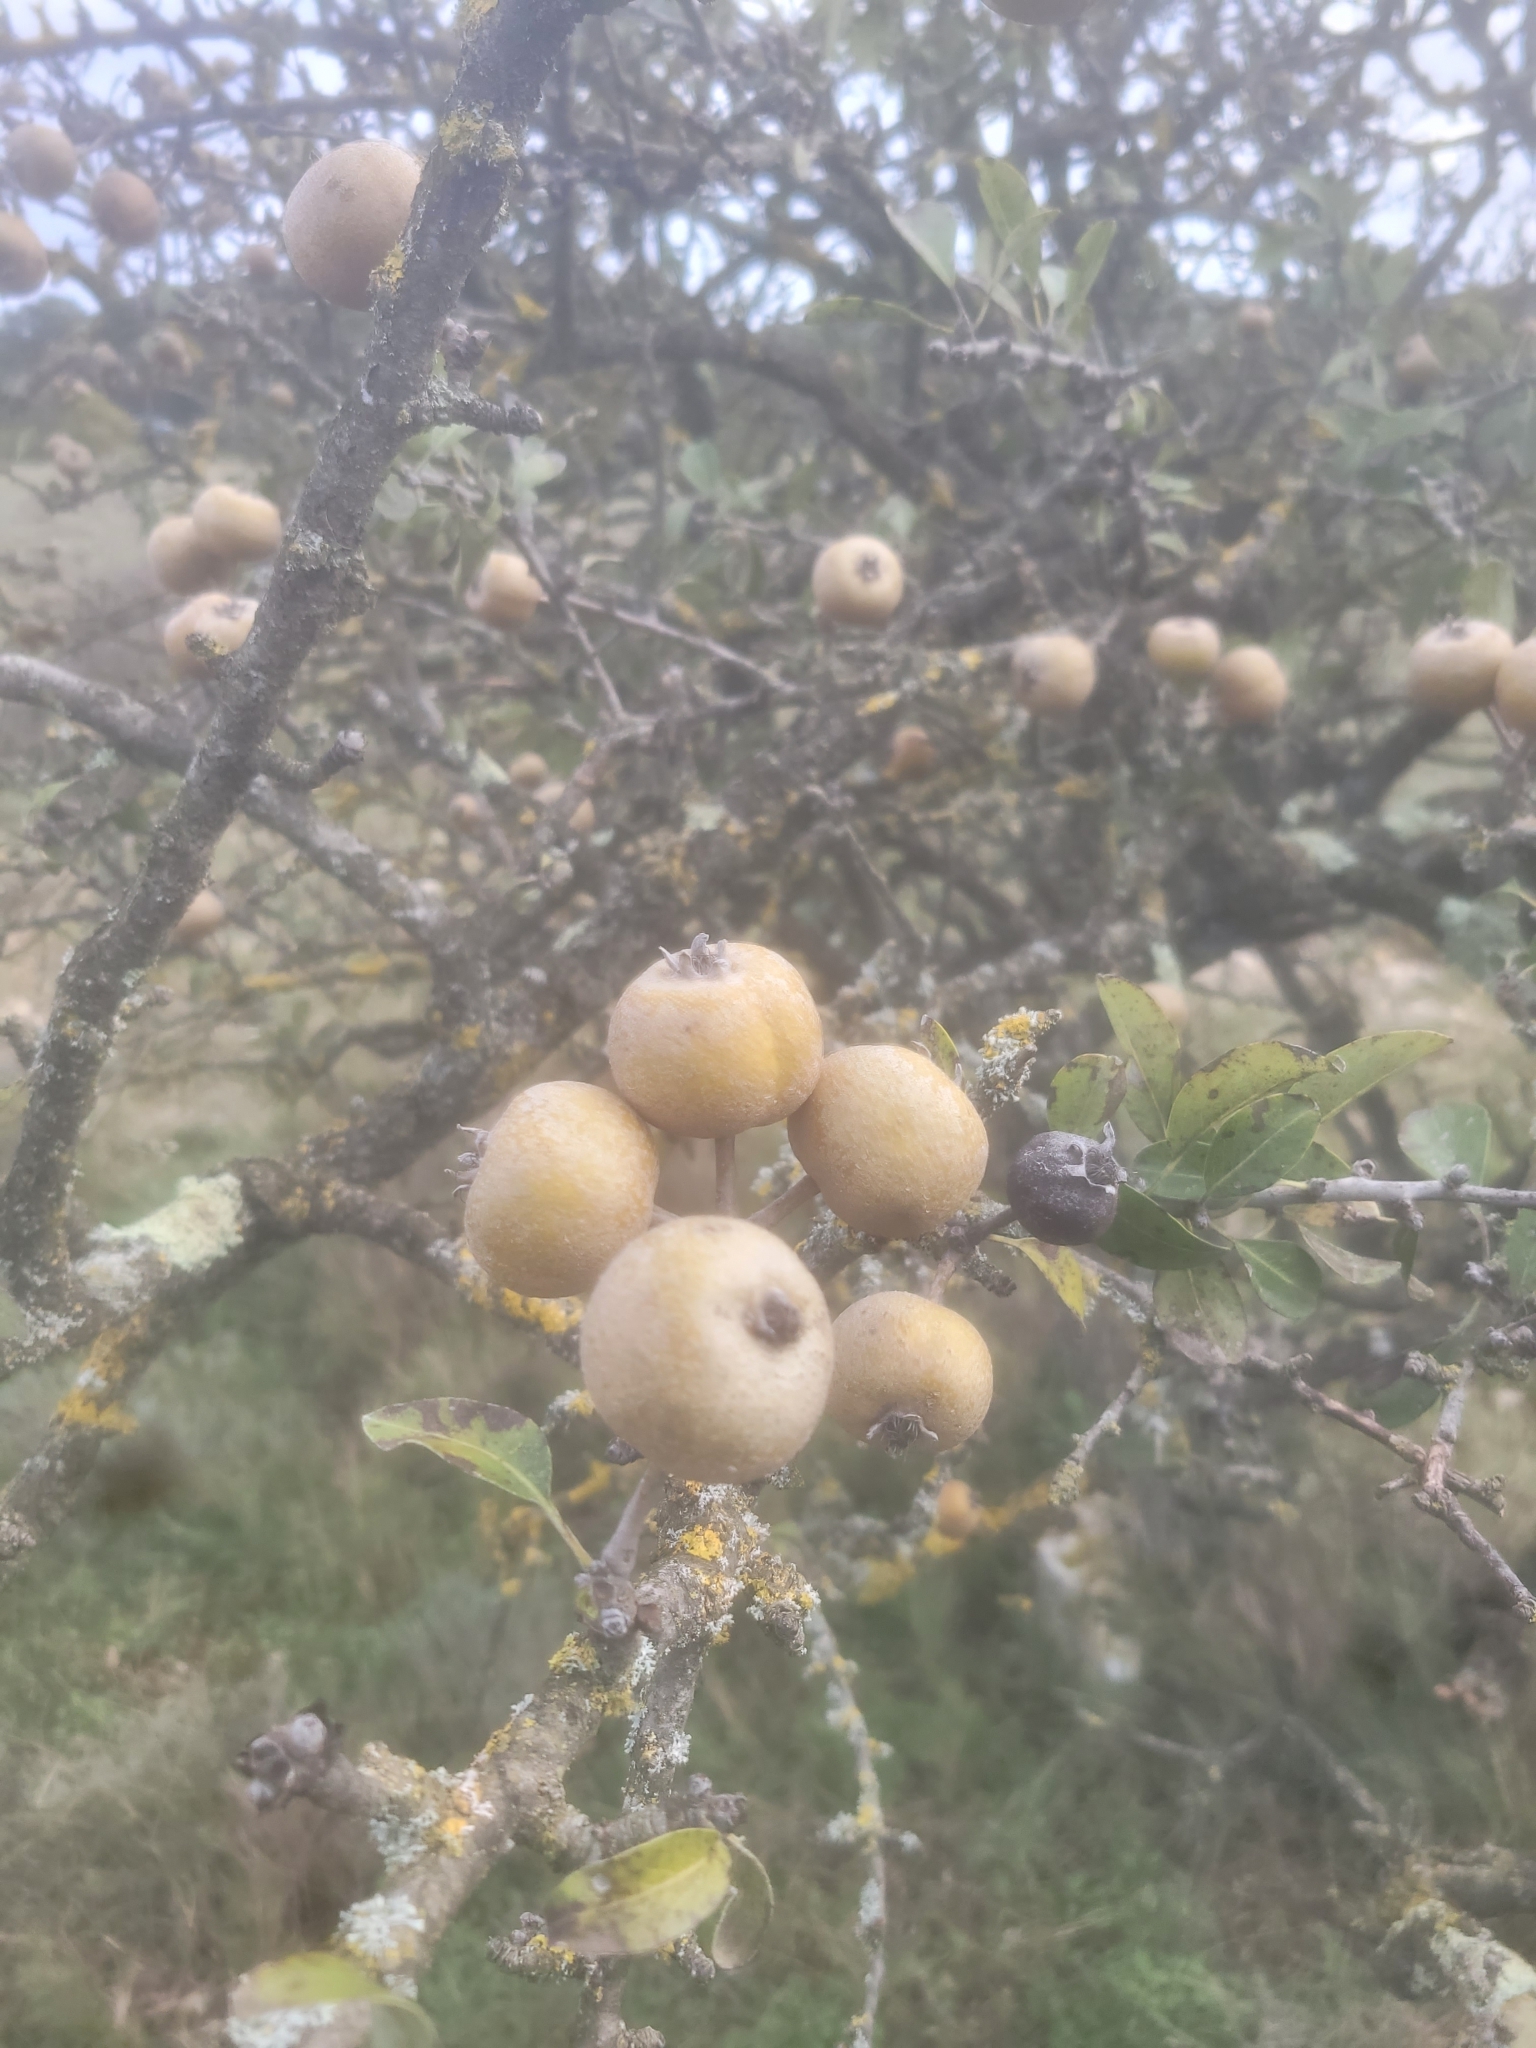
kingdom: Plantae
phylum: Tracheophyta
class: Magnoliopsida
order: Rosales
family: Rosaceae
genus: Pyrus
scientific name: Pyrus spinosa
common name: Almond-leaf pear
